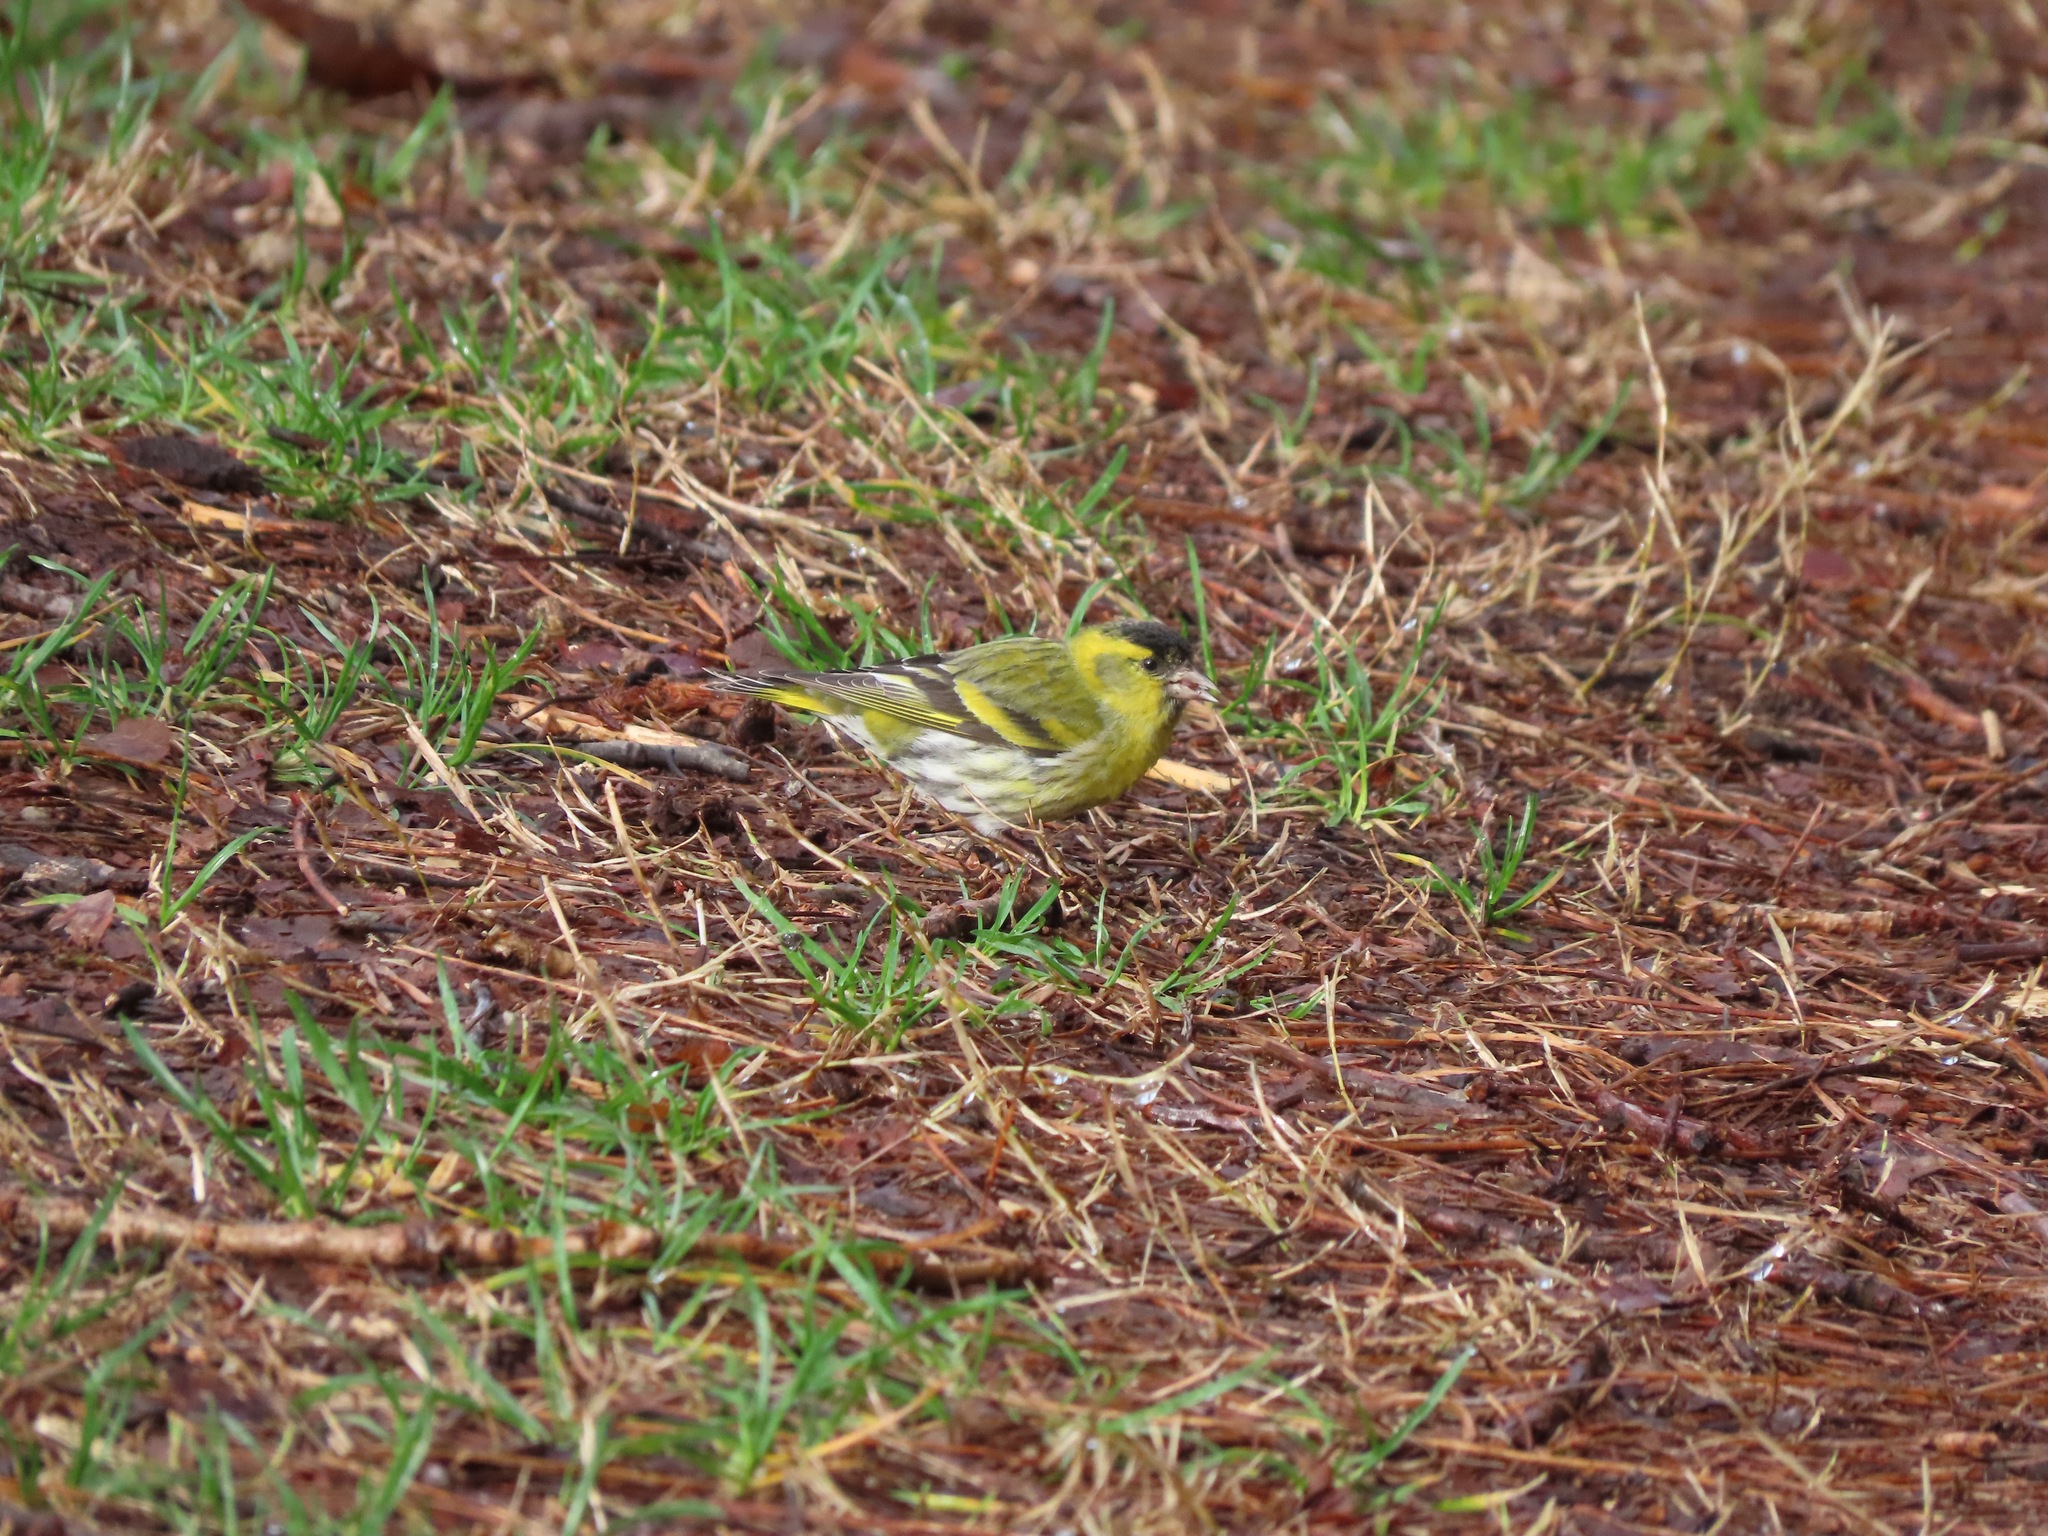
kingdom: Animalia
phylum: Chordata
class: Aves
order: Passeriformes
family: Fringillidae
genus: Spinus
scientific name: Spinus spinus
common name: Eurasian siskin
